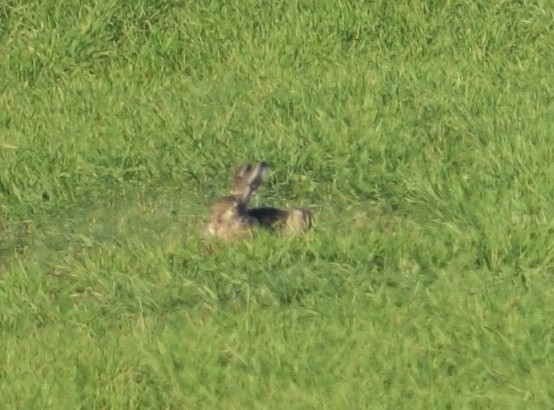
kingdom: Animalia
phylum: Chordata
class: Mammalia
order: Lagomorpha
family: Leporidae
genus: Lepus
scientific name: Lepus europaeus
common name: European hare
